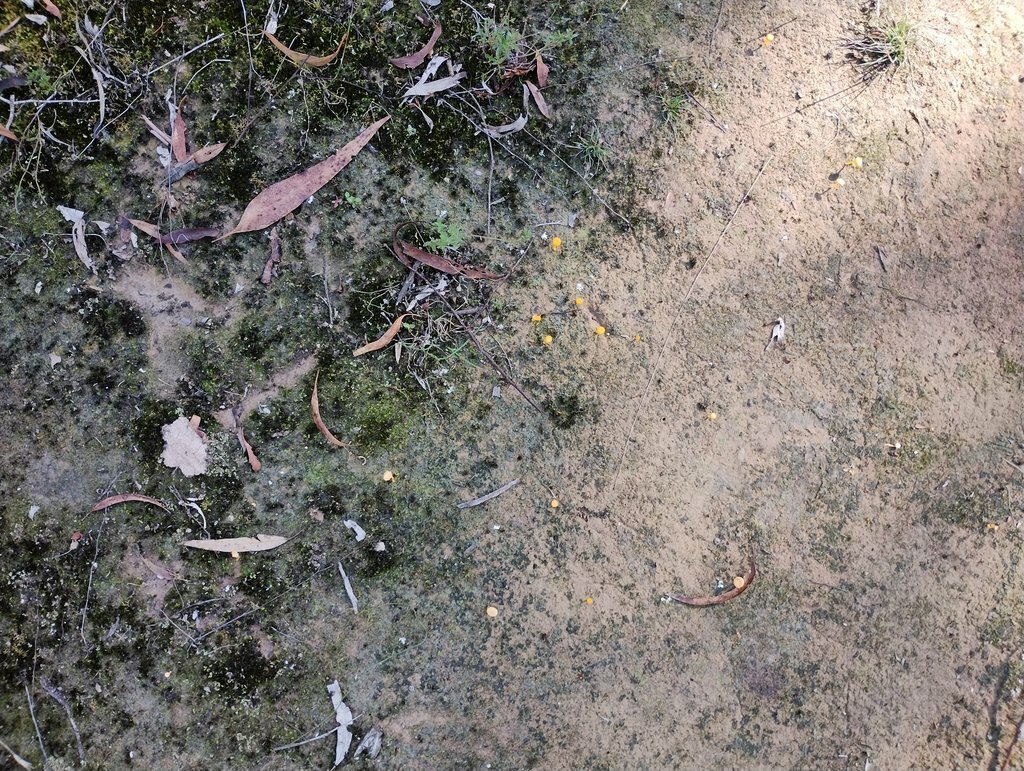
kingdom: Fungi
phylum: Basidiomycota
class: Agaricomycetes
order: Agaricales
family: Hygrophoraceae
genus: Lichenomphalia
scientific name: Lichenomphalia chromacea
